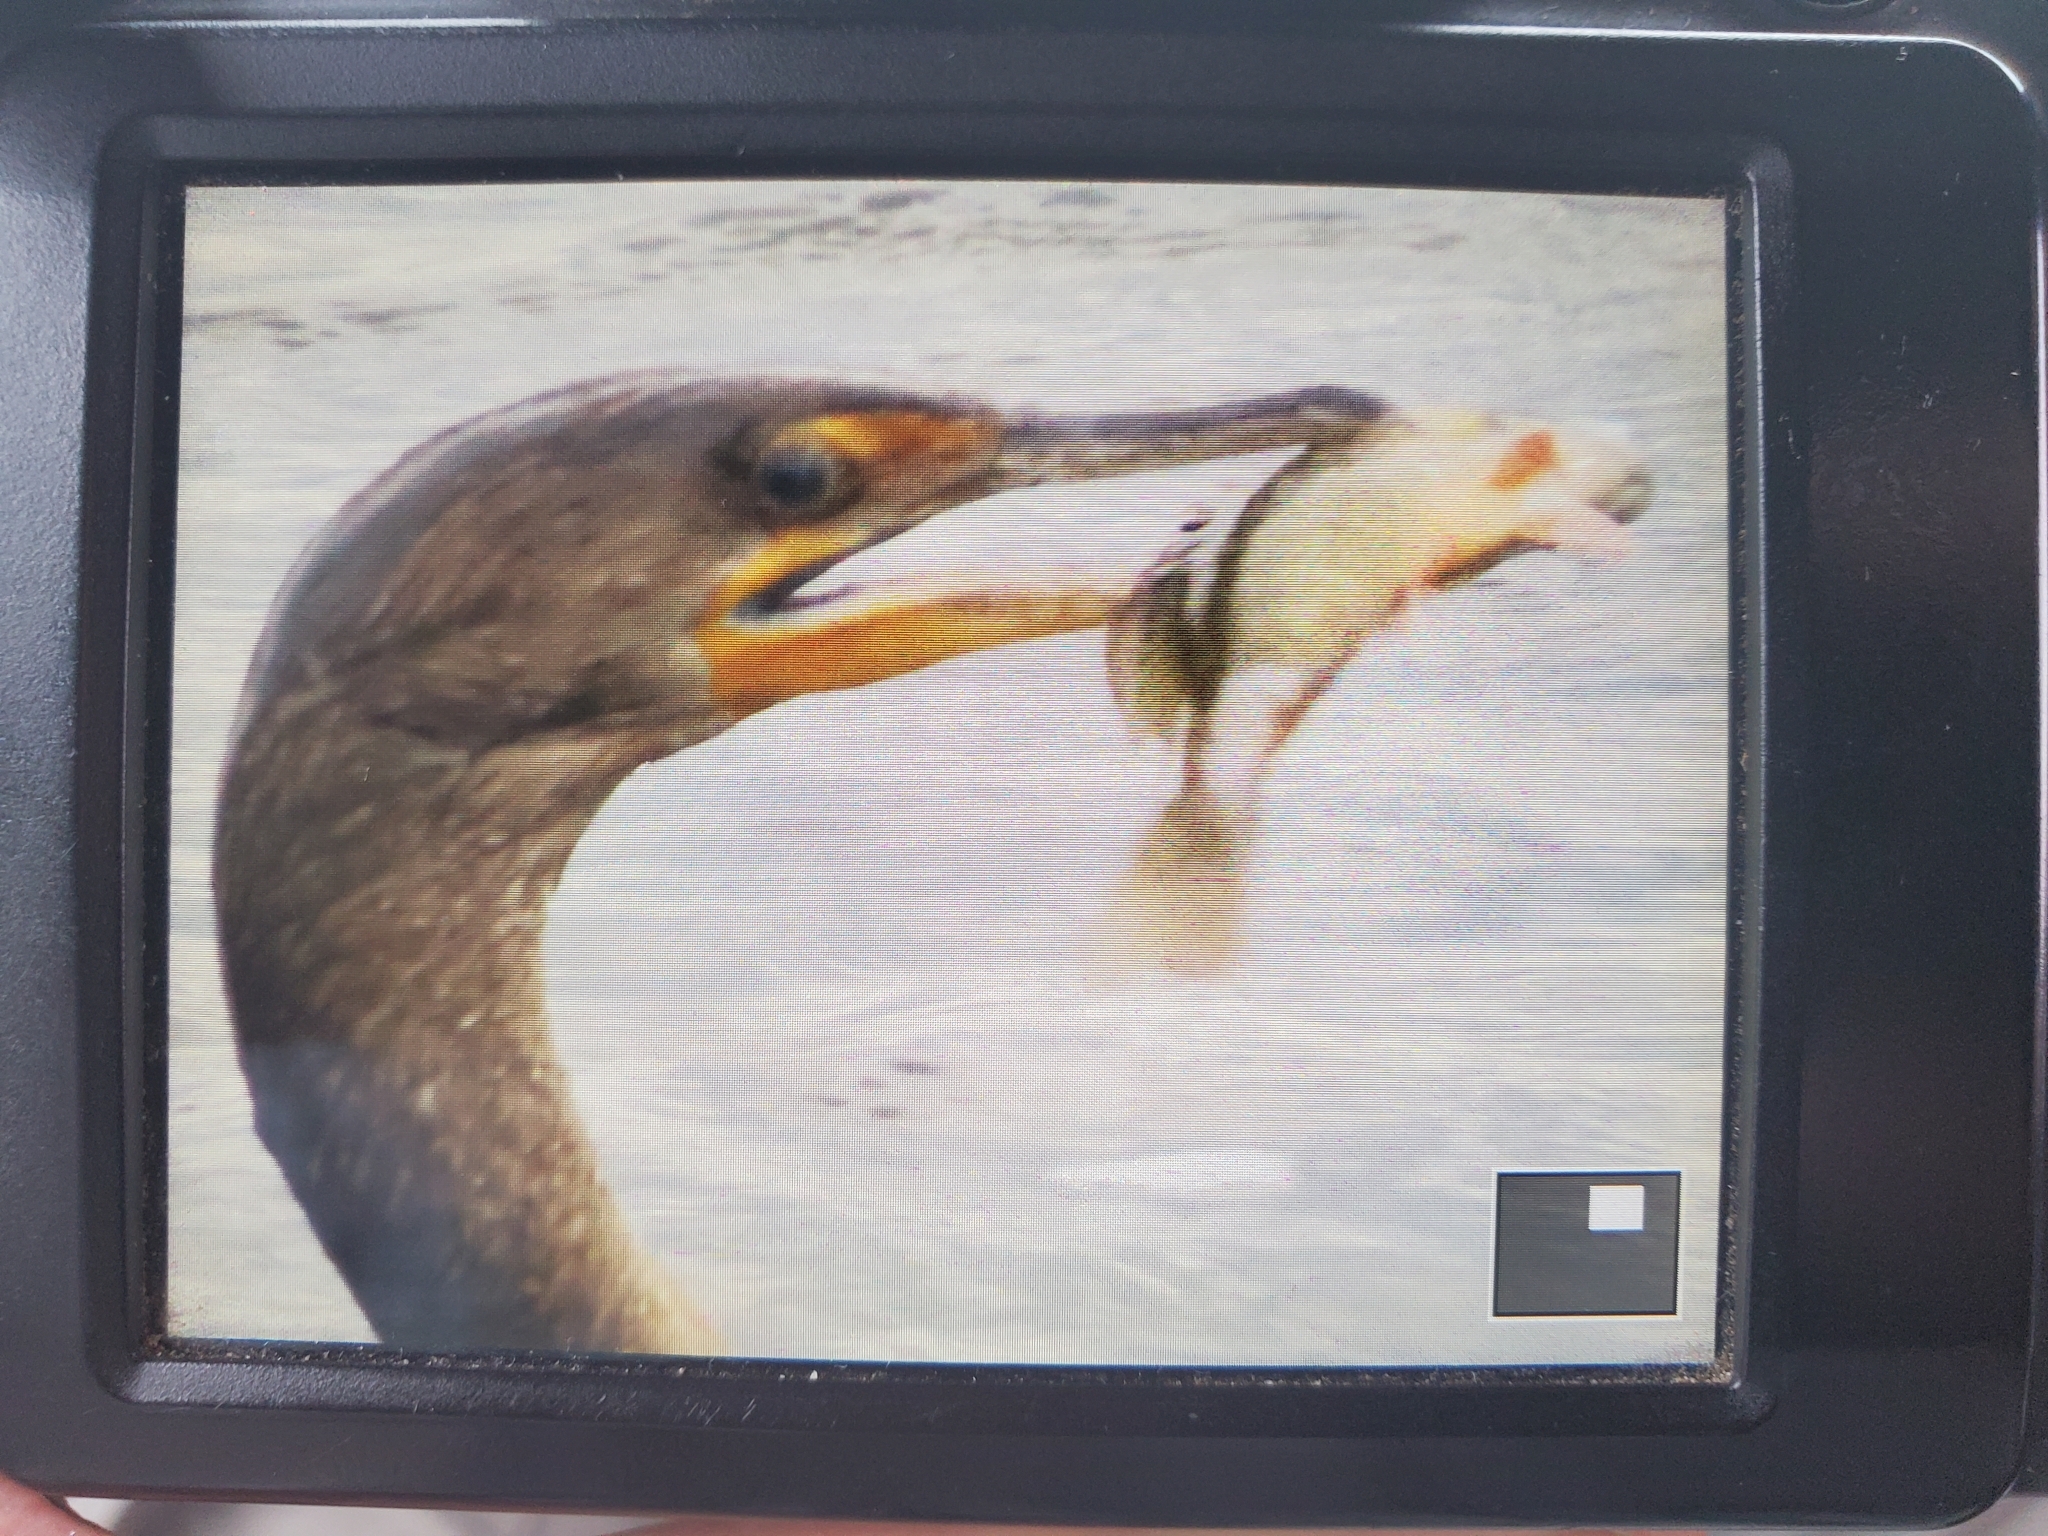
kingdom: Animalia
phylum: Chordata
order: Perciformes
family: Lutjanidae
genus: Lutjanus
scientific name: Lutjanus griseus
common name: Gray snapper
